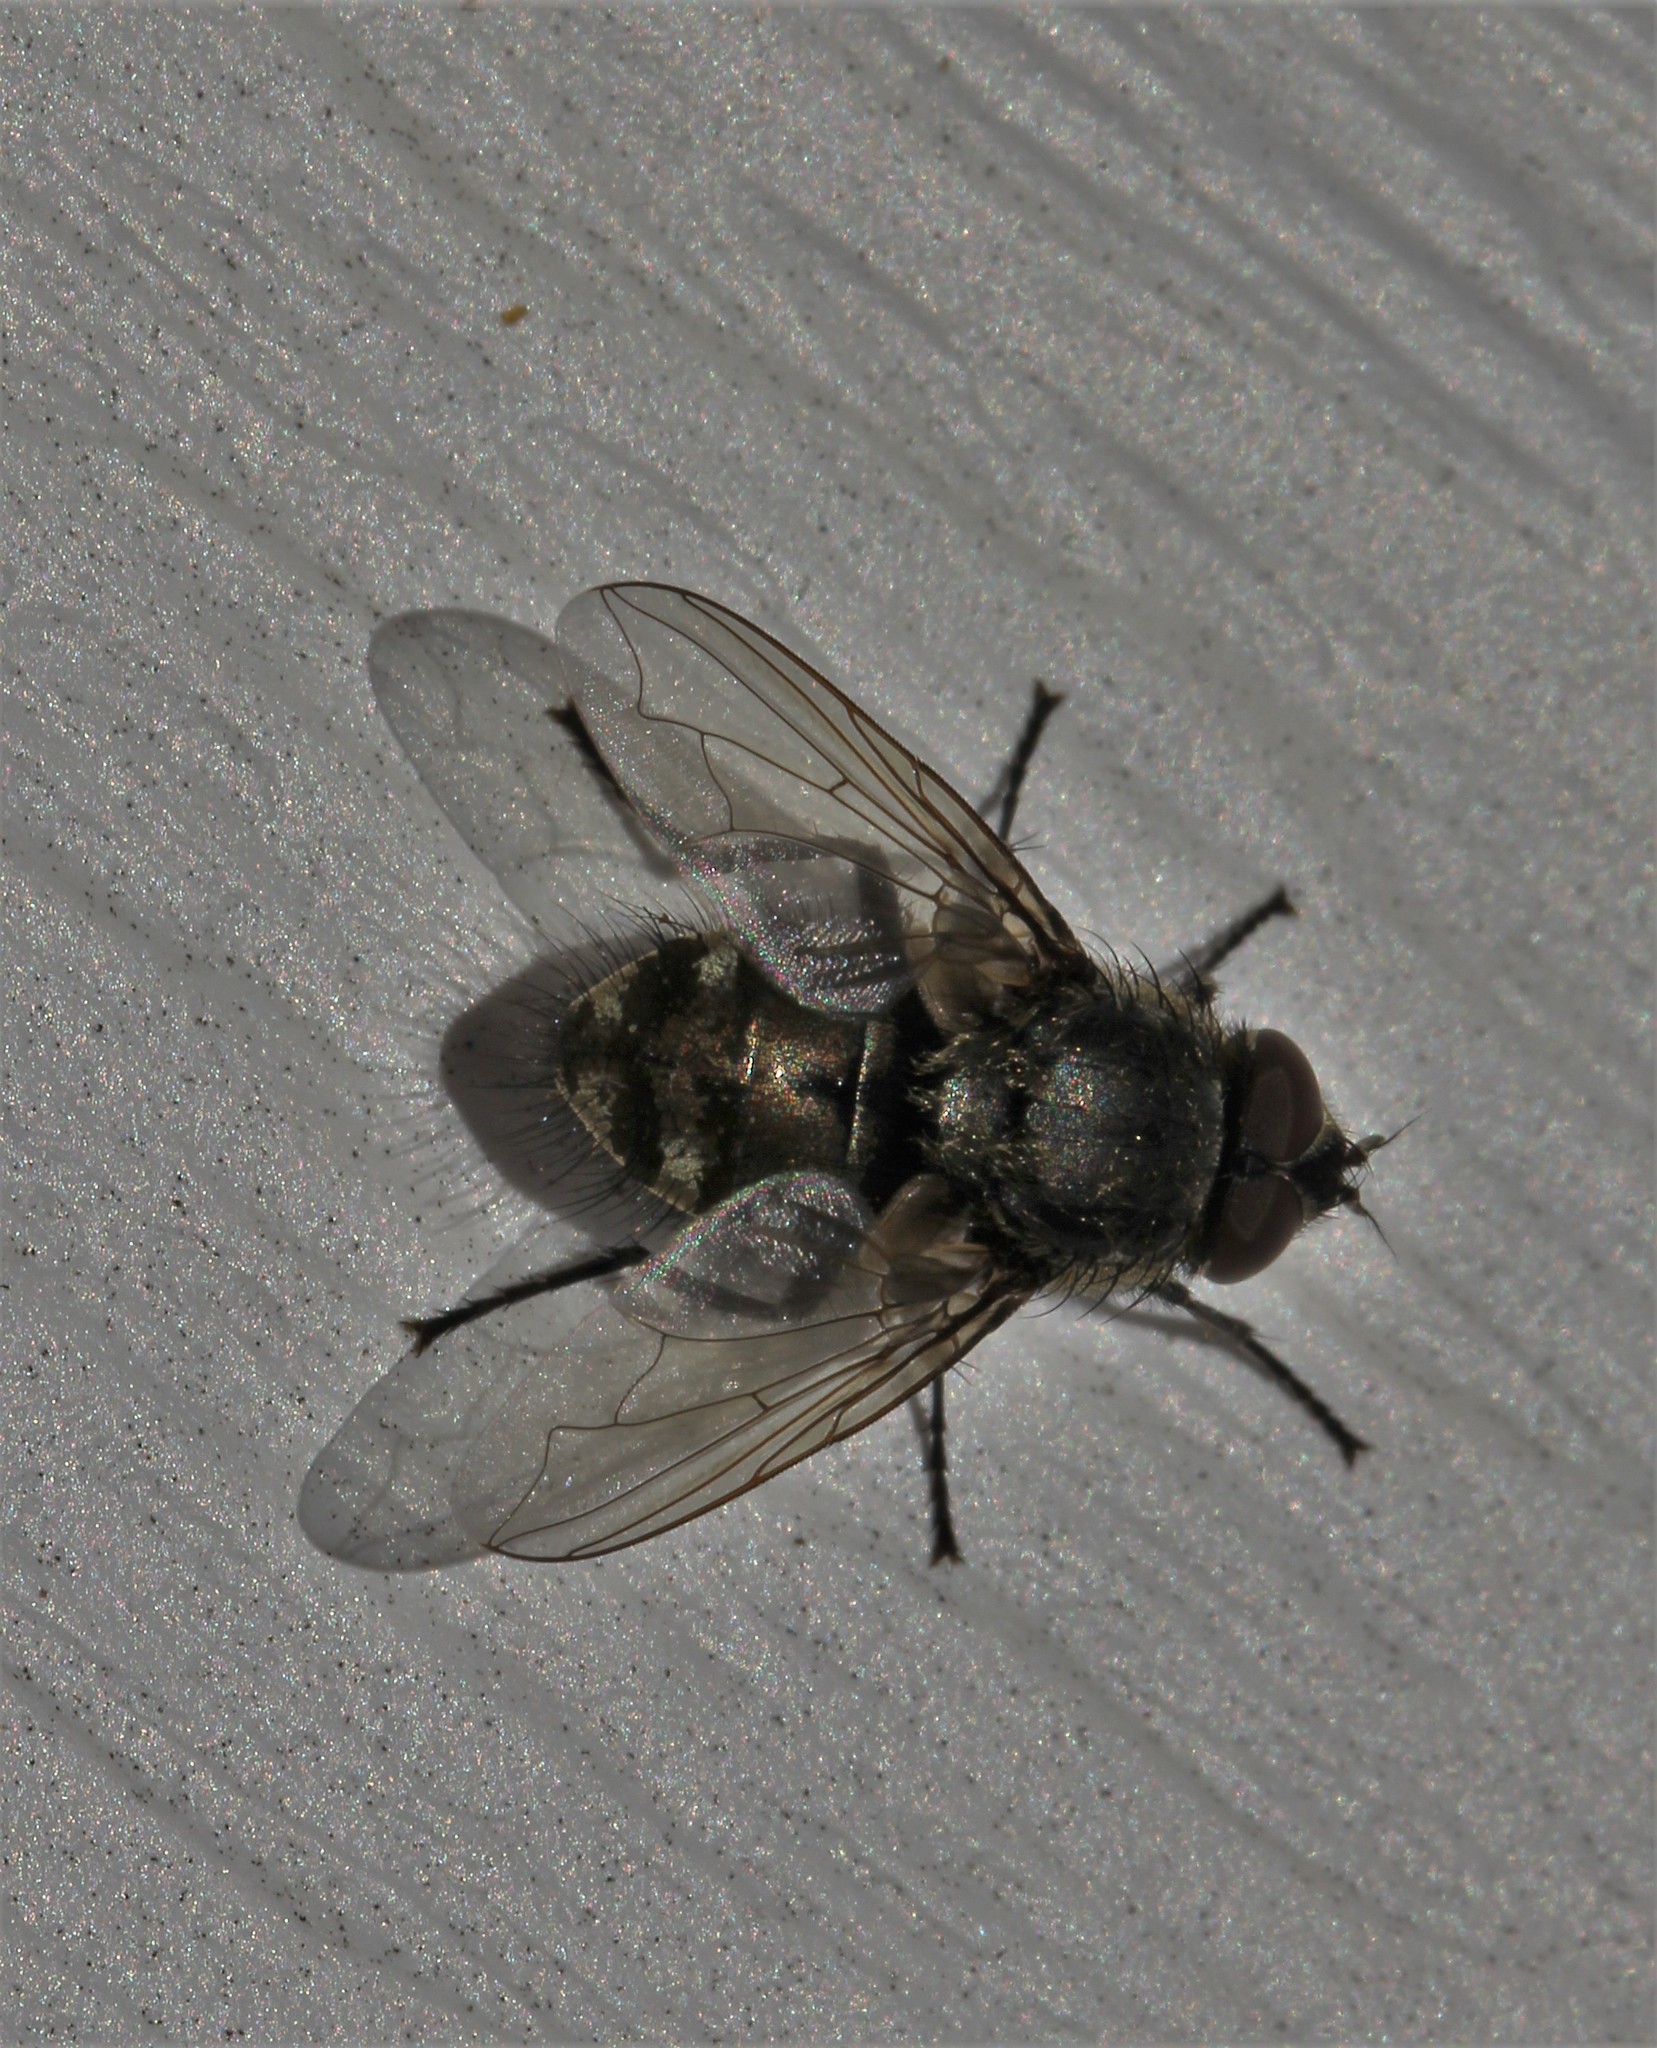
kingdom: Animalia
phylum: Arthropoda
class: Insecta
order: Diptera
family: Polleniidae
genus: Pollenia
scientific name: Pollenia
